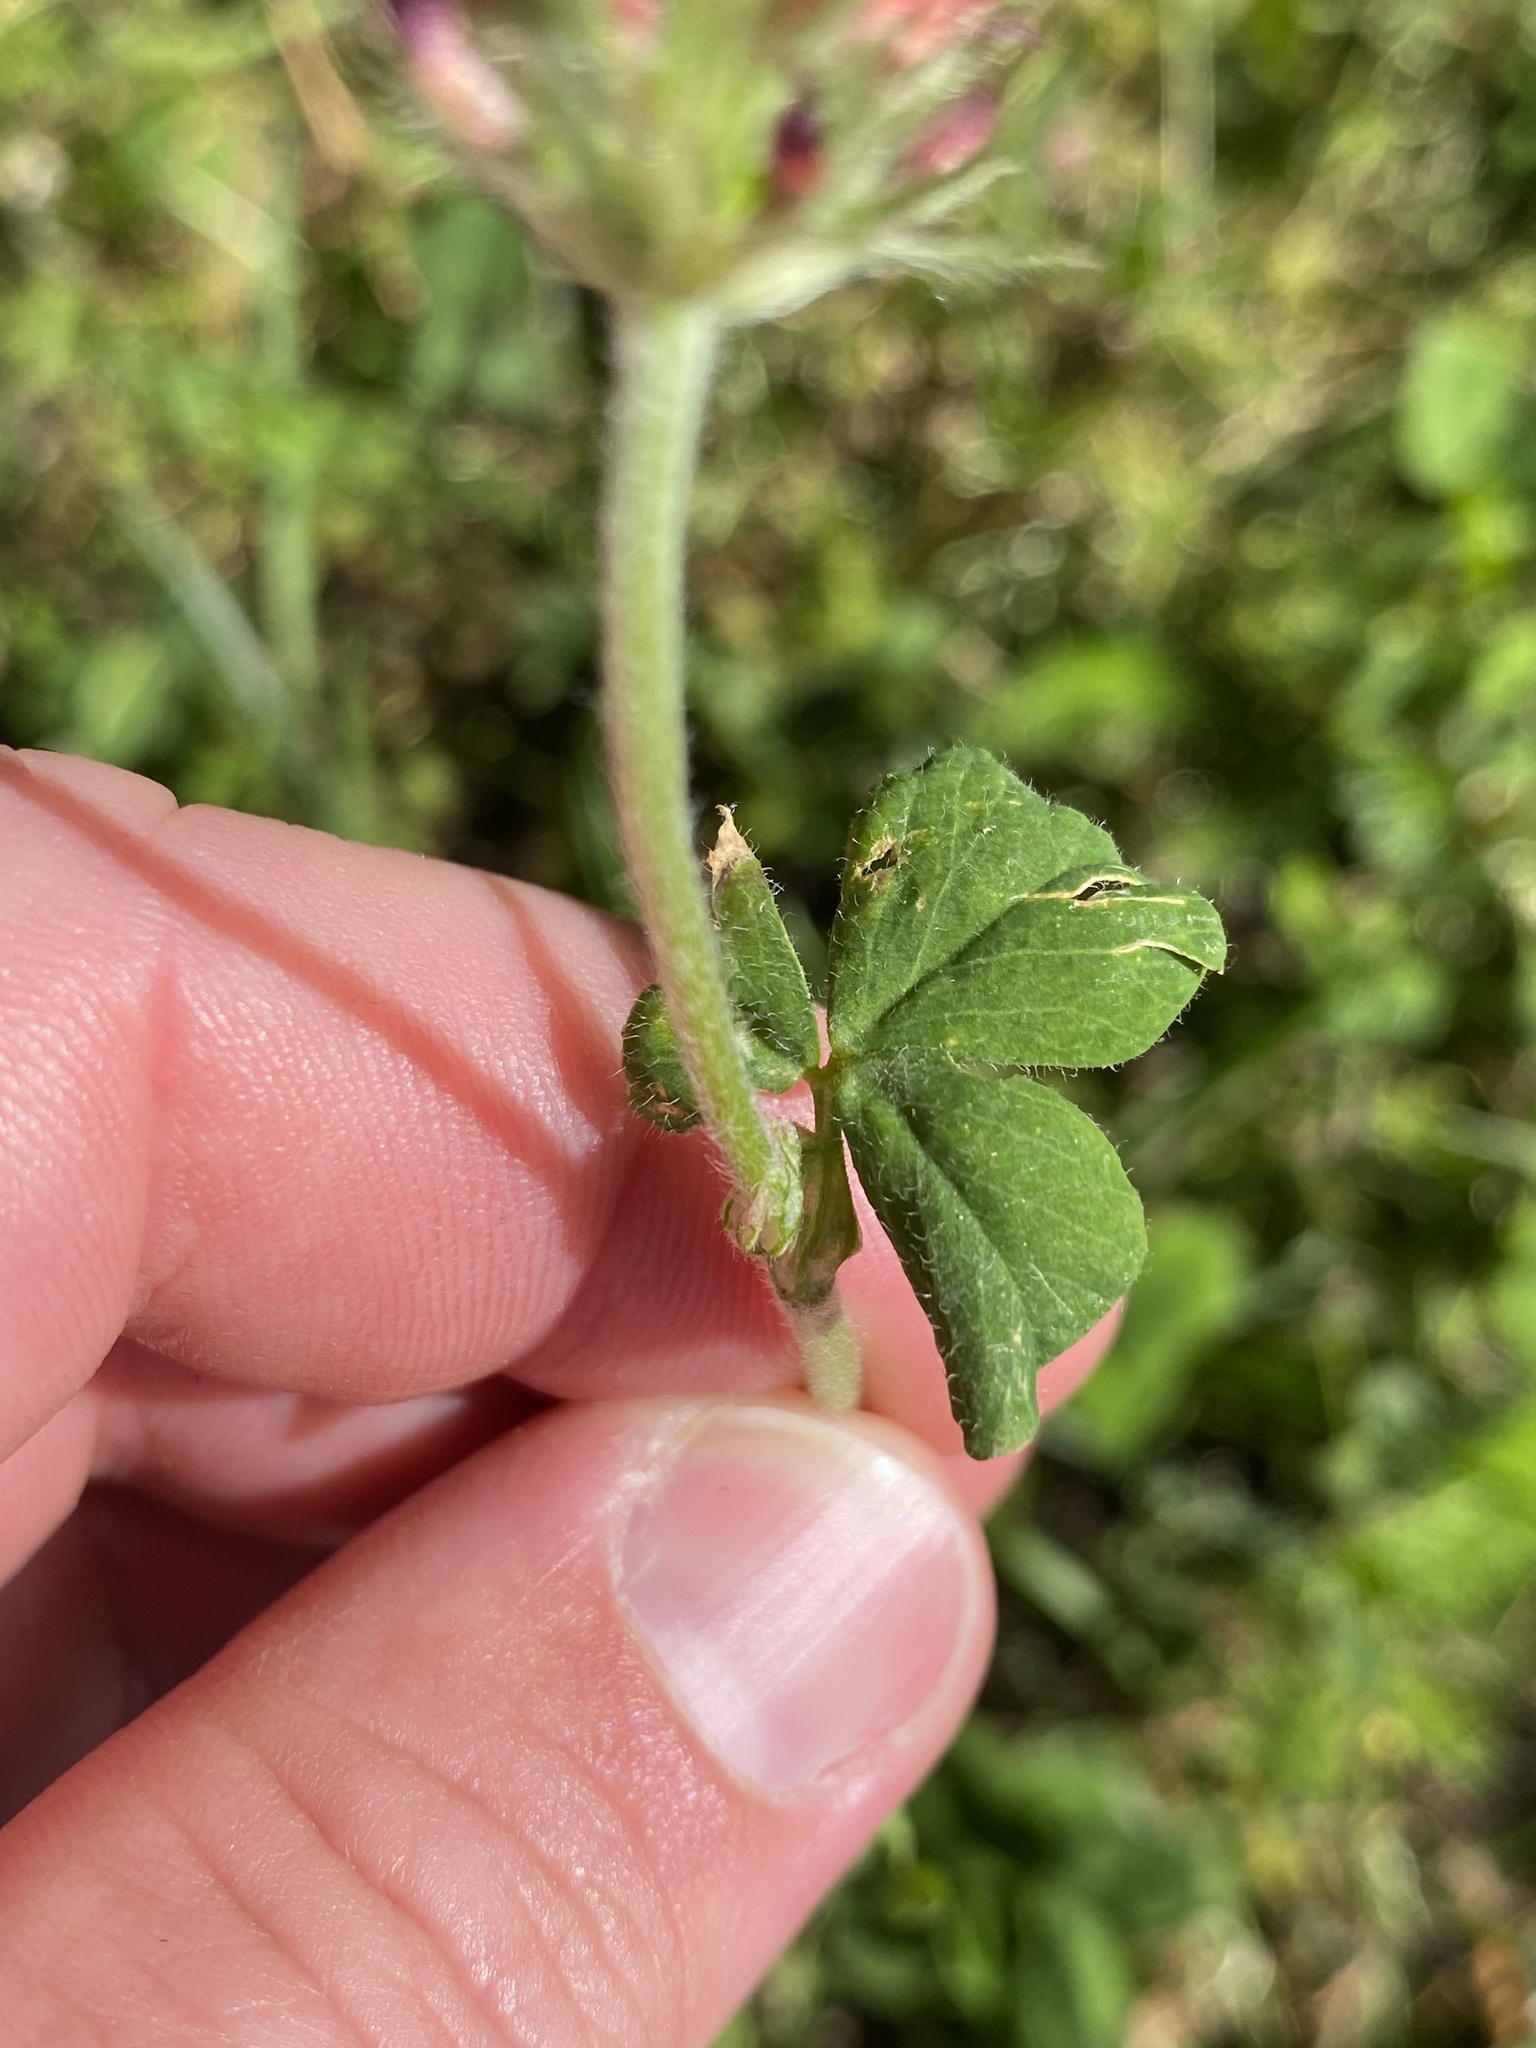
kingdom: Plantae
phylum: Tracheophyta
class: Magnoliopsida
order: Fabales
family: Fabaceae
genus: Trifolium
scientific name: Trifolium incarnatum
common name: Crimson clover
